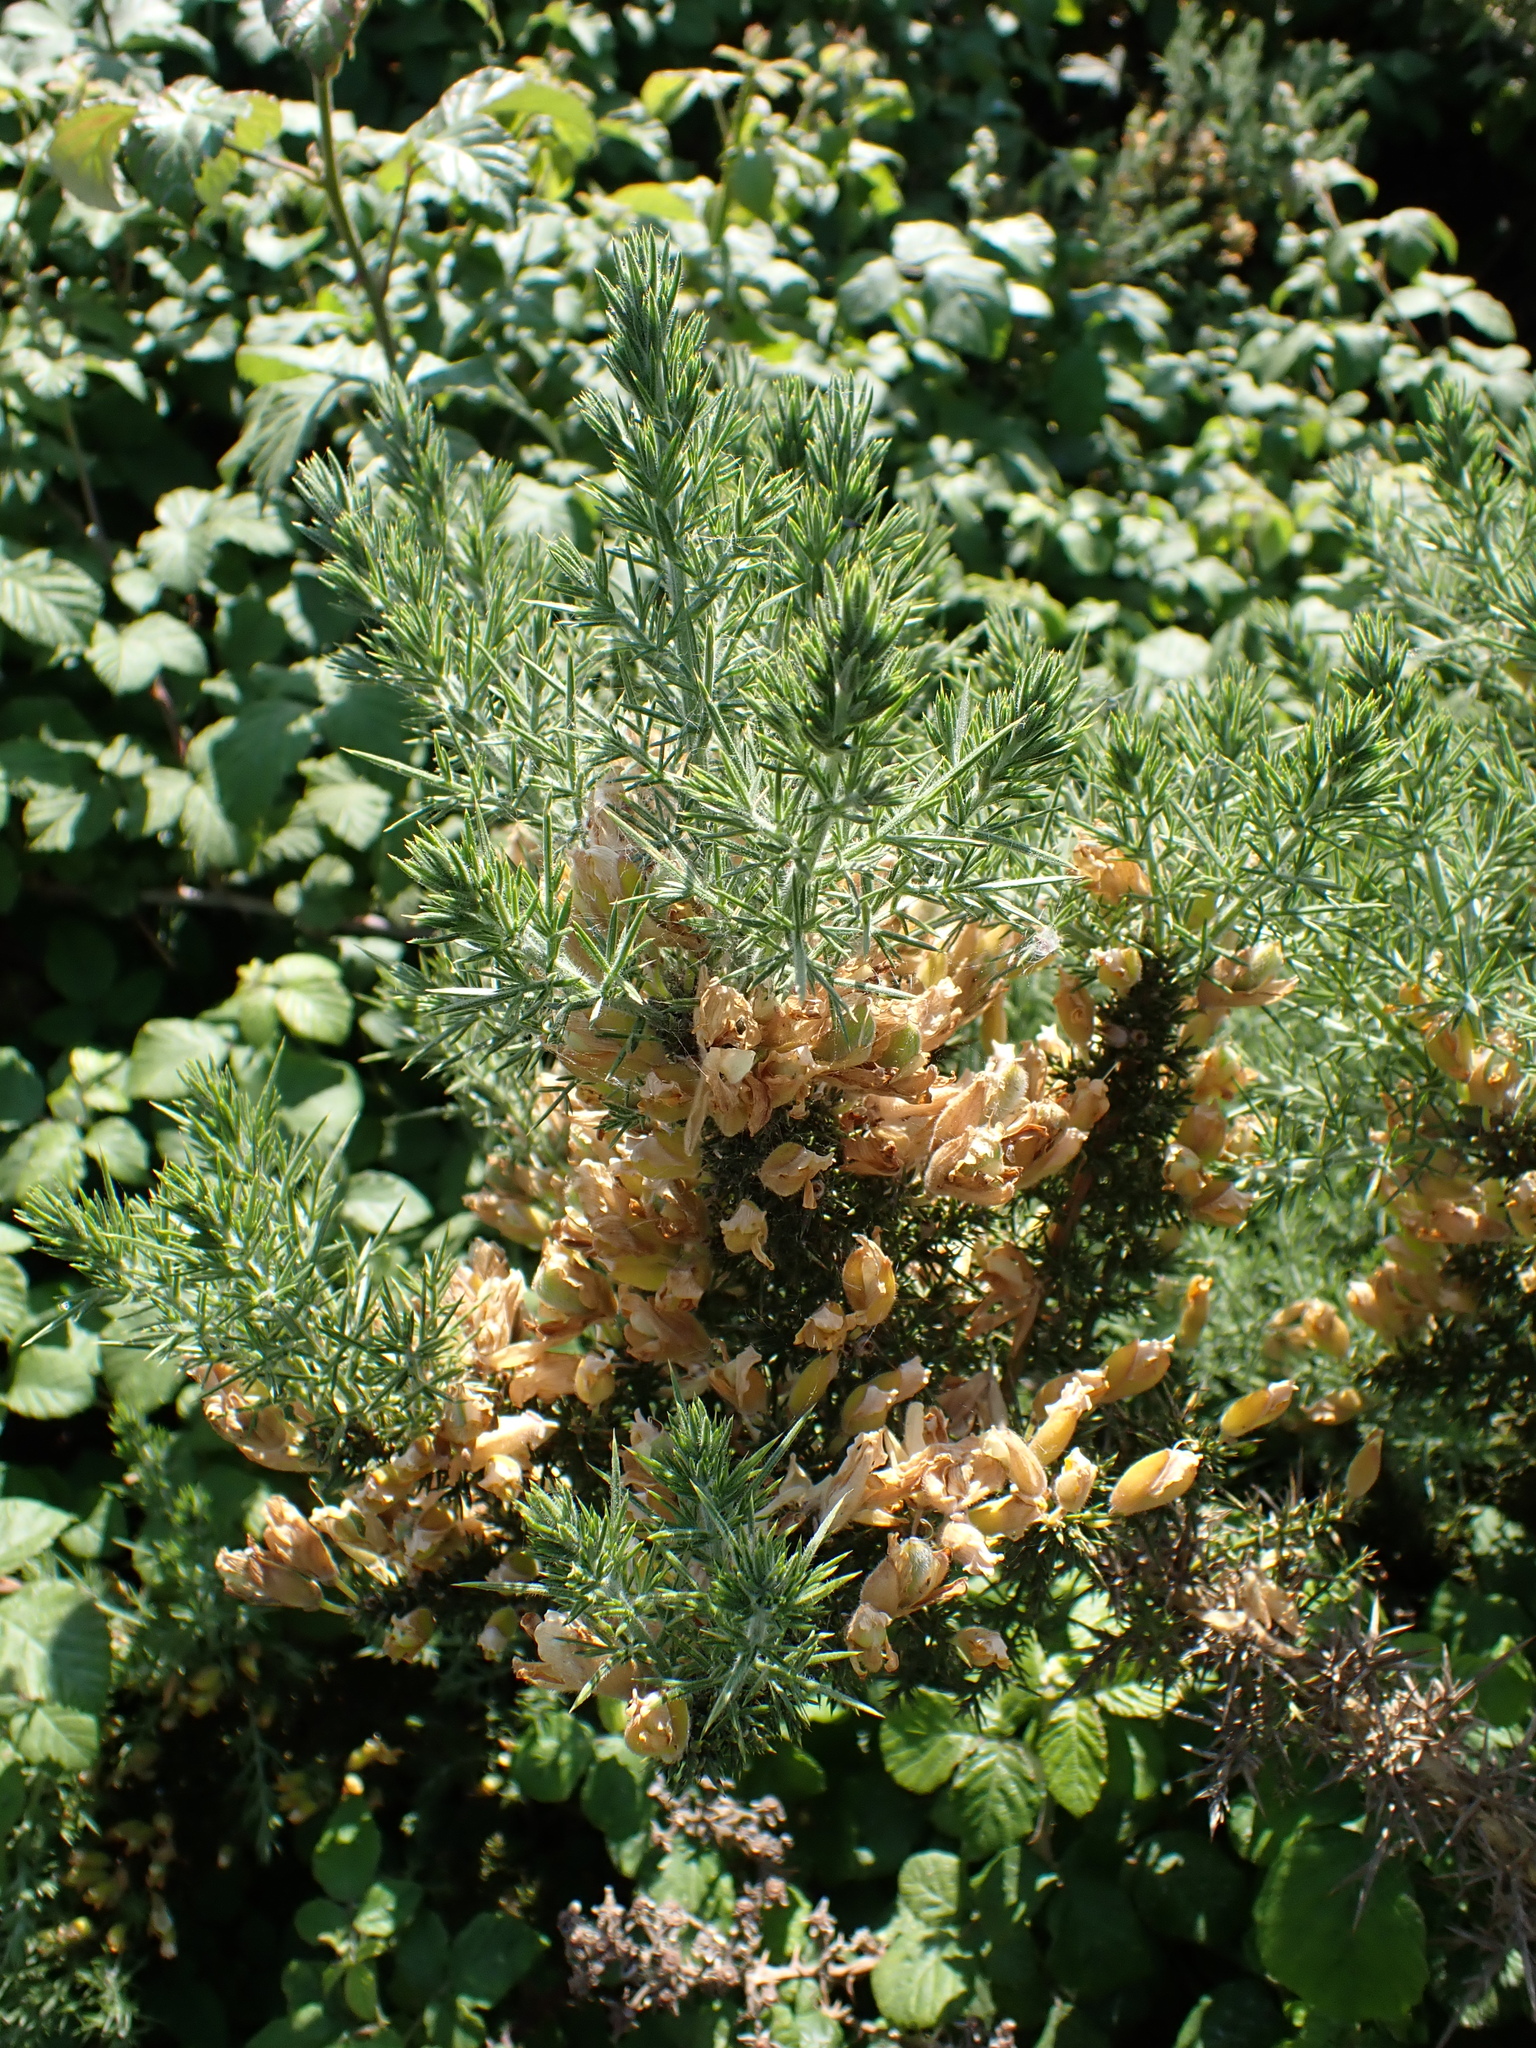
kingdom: Plantae
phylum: Tracheophyta
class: Magnoliopsida
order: Fabales
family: Fabaceae
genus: Ulex
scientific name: Ulex europaeus
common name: Common gorse
